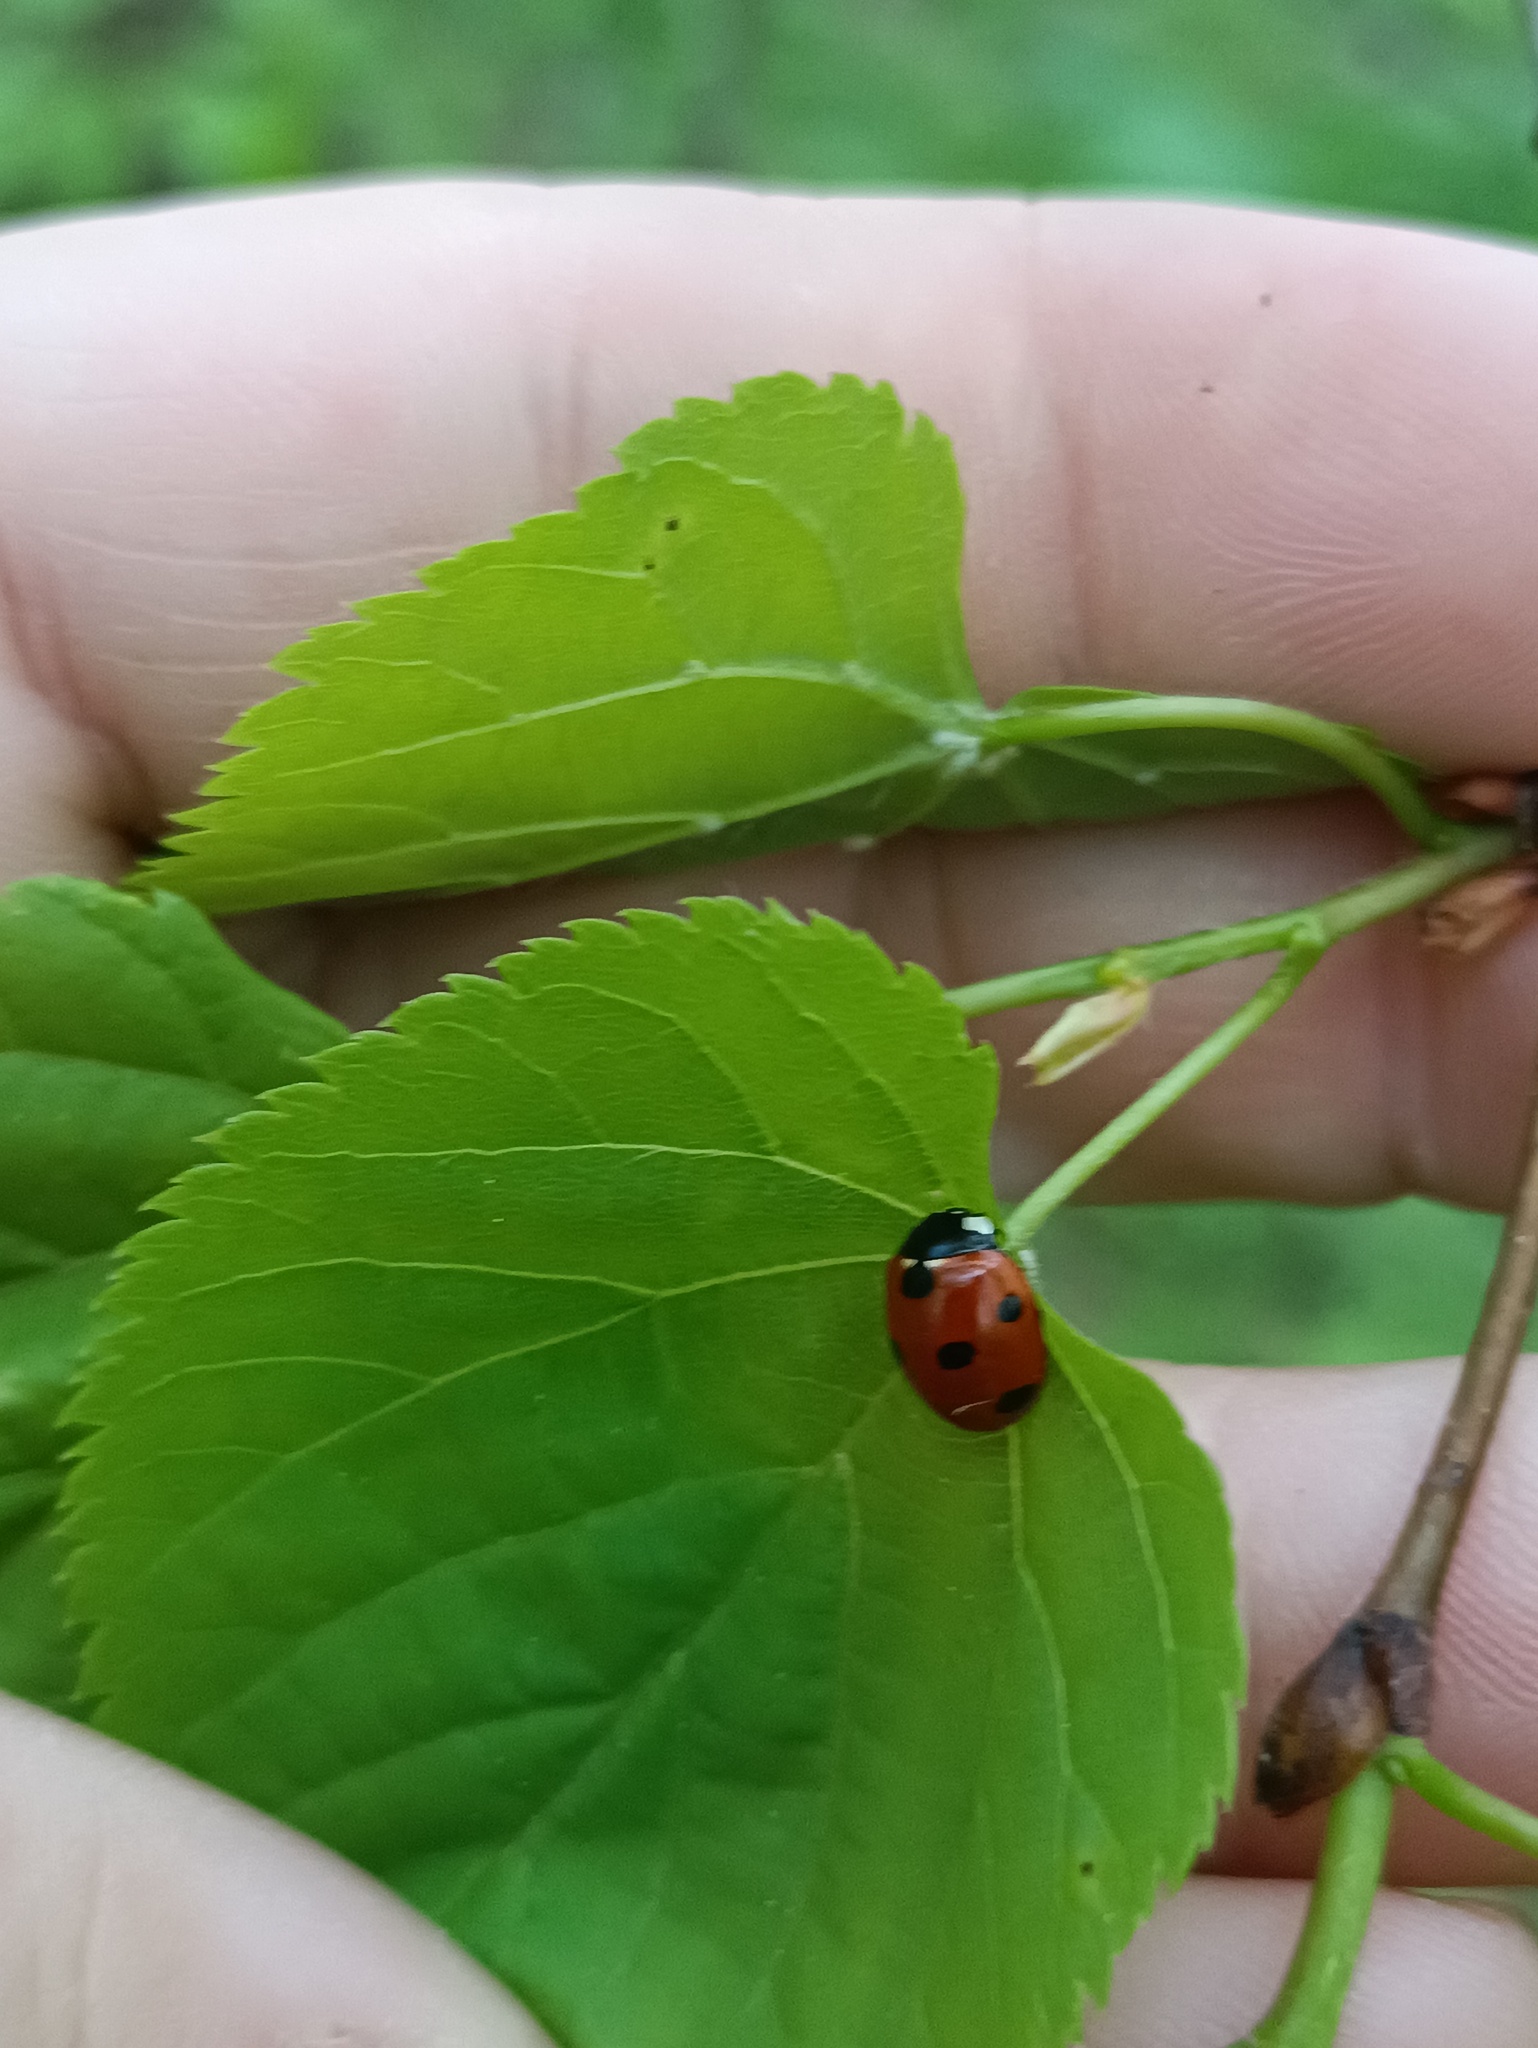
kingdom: Animalia
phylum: Arthropoda
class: Insecta
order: Coleoptera
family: Coccinellidae
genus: Coccinella
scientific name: Coccinella septempunctata
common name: Sevenspotted lady beetle
